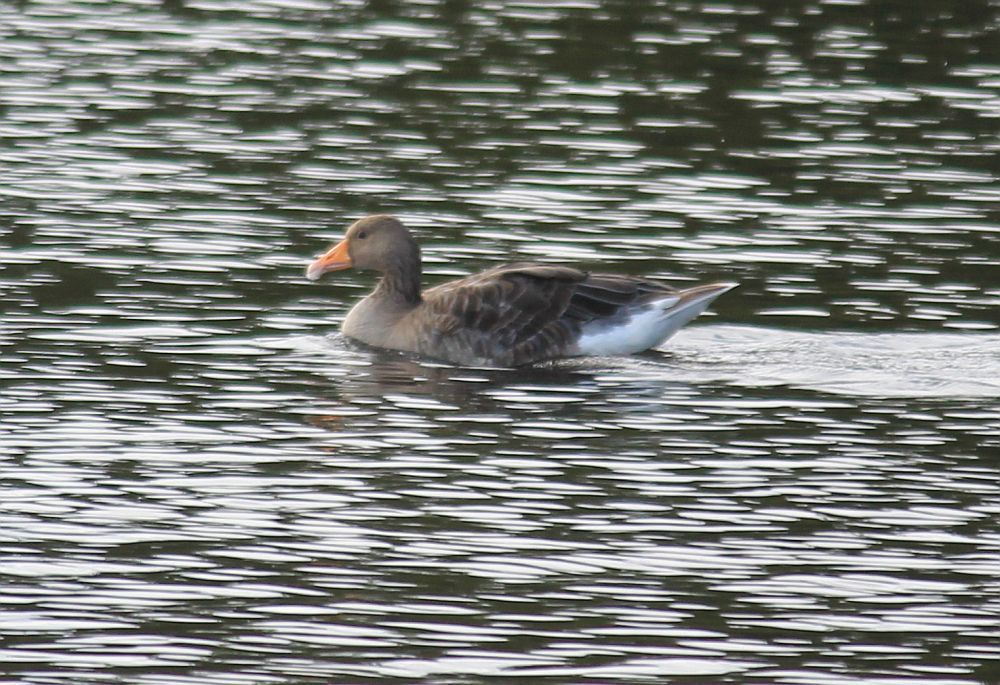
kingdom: Animalia
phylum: Chordata
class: Aves
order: Anseriformes
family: Anatidae
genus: Anser
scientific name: Anser anser
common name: Greylag goose
